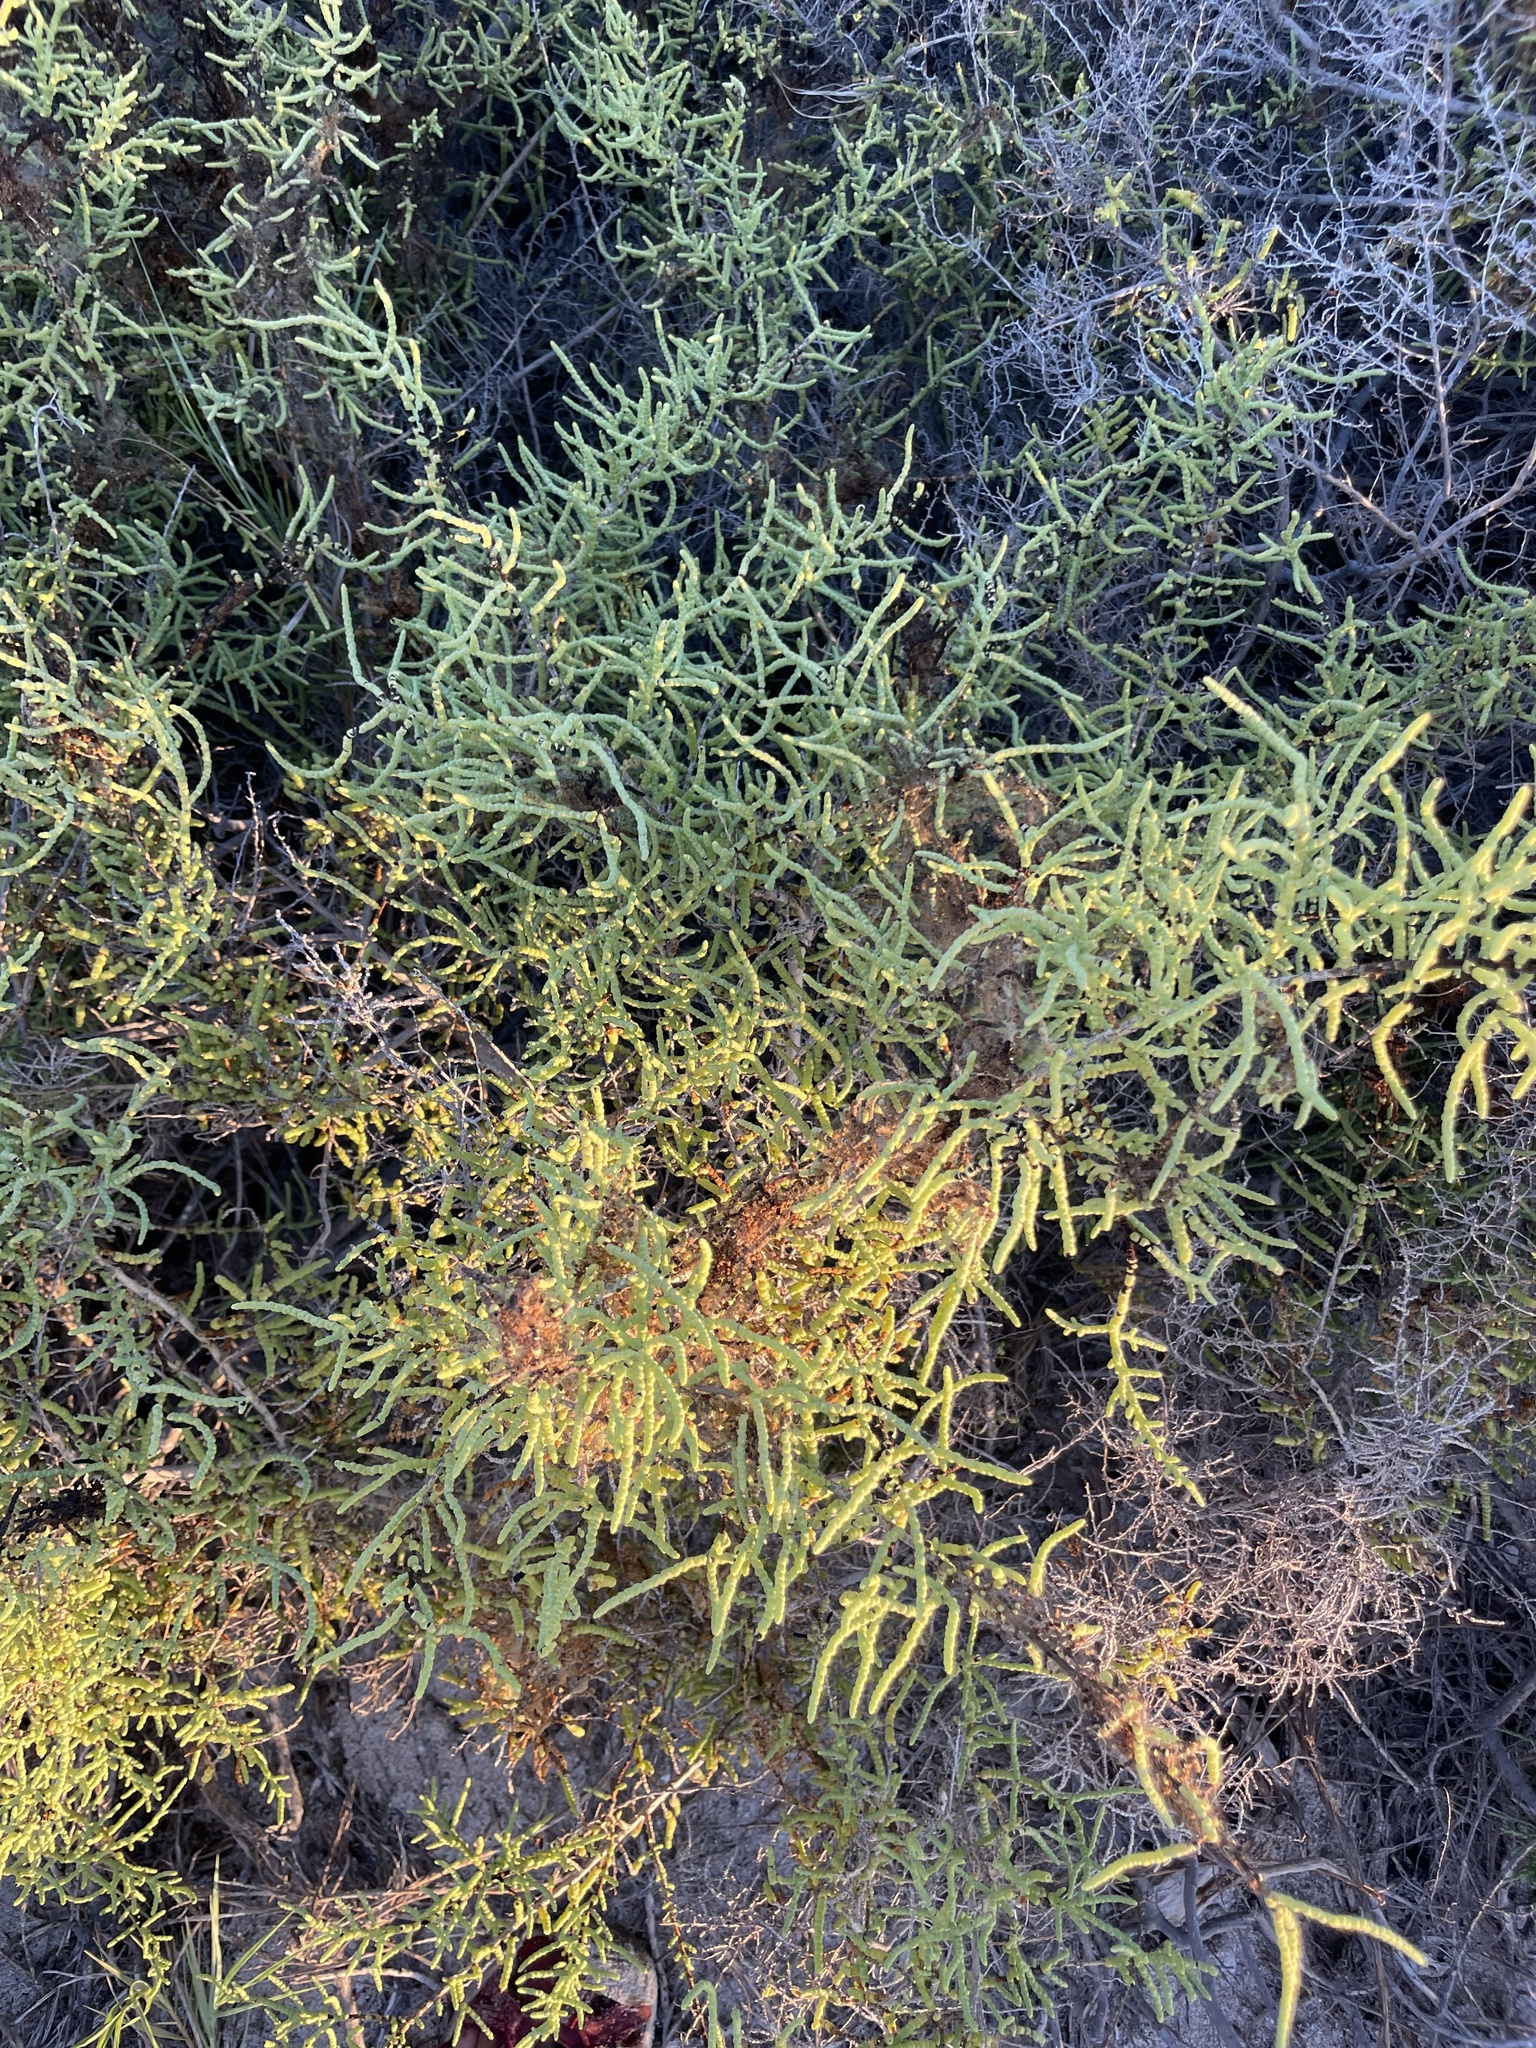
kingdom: Plantae
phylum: Tracheophyta
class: Magnoliopsida
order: Caryophyllales
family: Amaranthaceae
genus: Allenrolfea
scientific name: Allenrolfea occidentalis
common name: Iodine-bush
